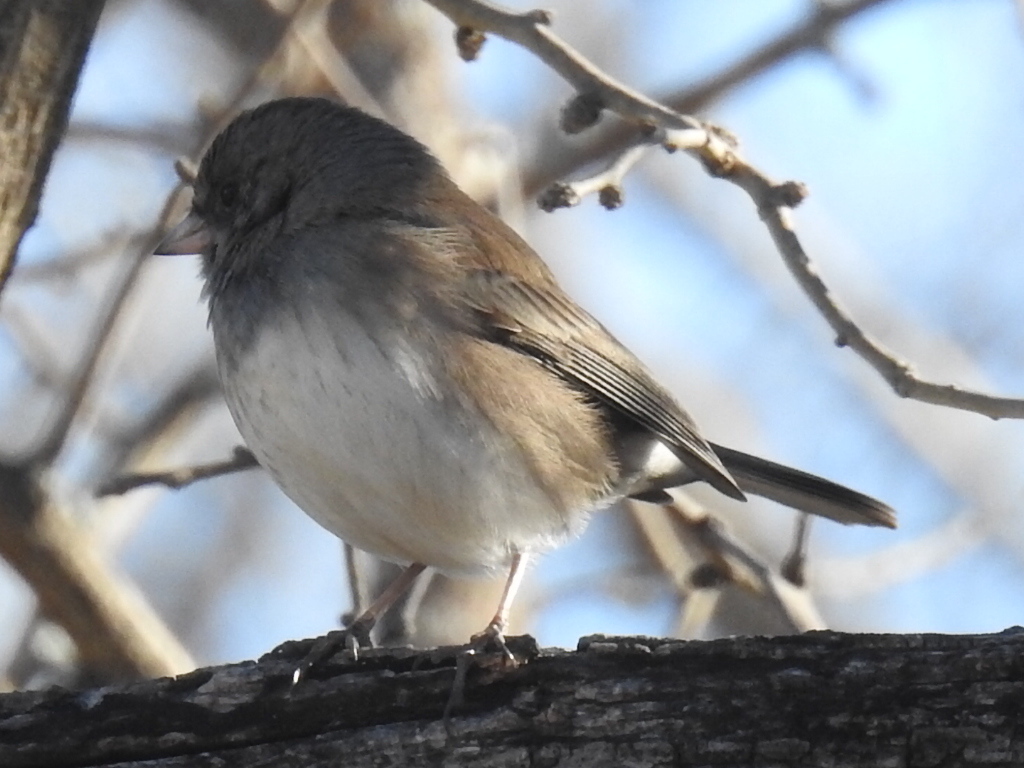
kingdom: Animalia
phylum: Chordata
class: Aves
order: Passeriformes
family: Passerellidae
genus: Junco
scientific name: Junco hyemalis
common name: Dark-eyed junco
